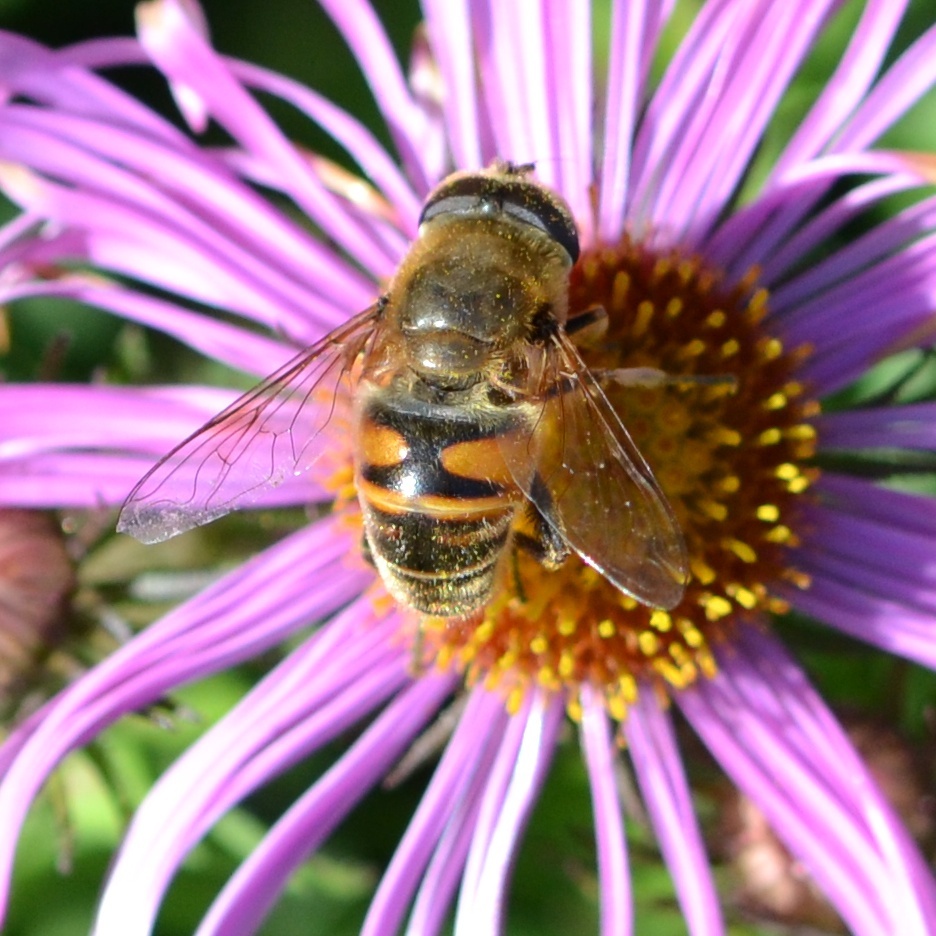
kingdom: Animalia
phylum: Arthropoda
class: Insecta
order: Diptera
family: Syrphidae
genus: Eristalis
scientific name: Eristalis tenax
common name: Drone fly
